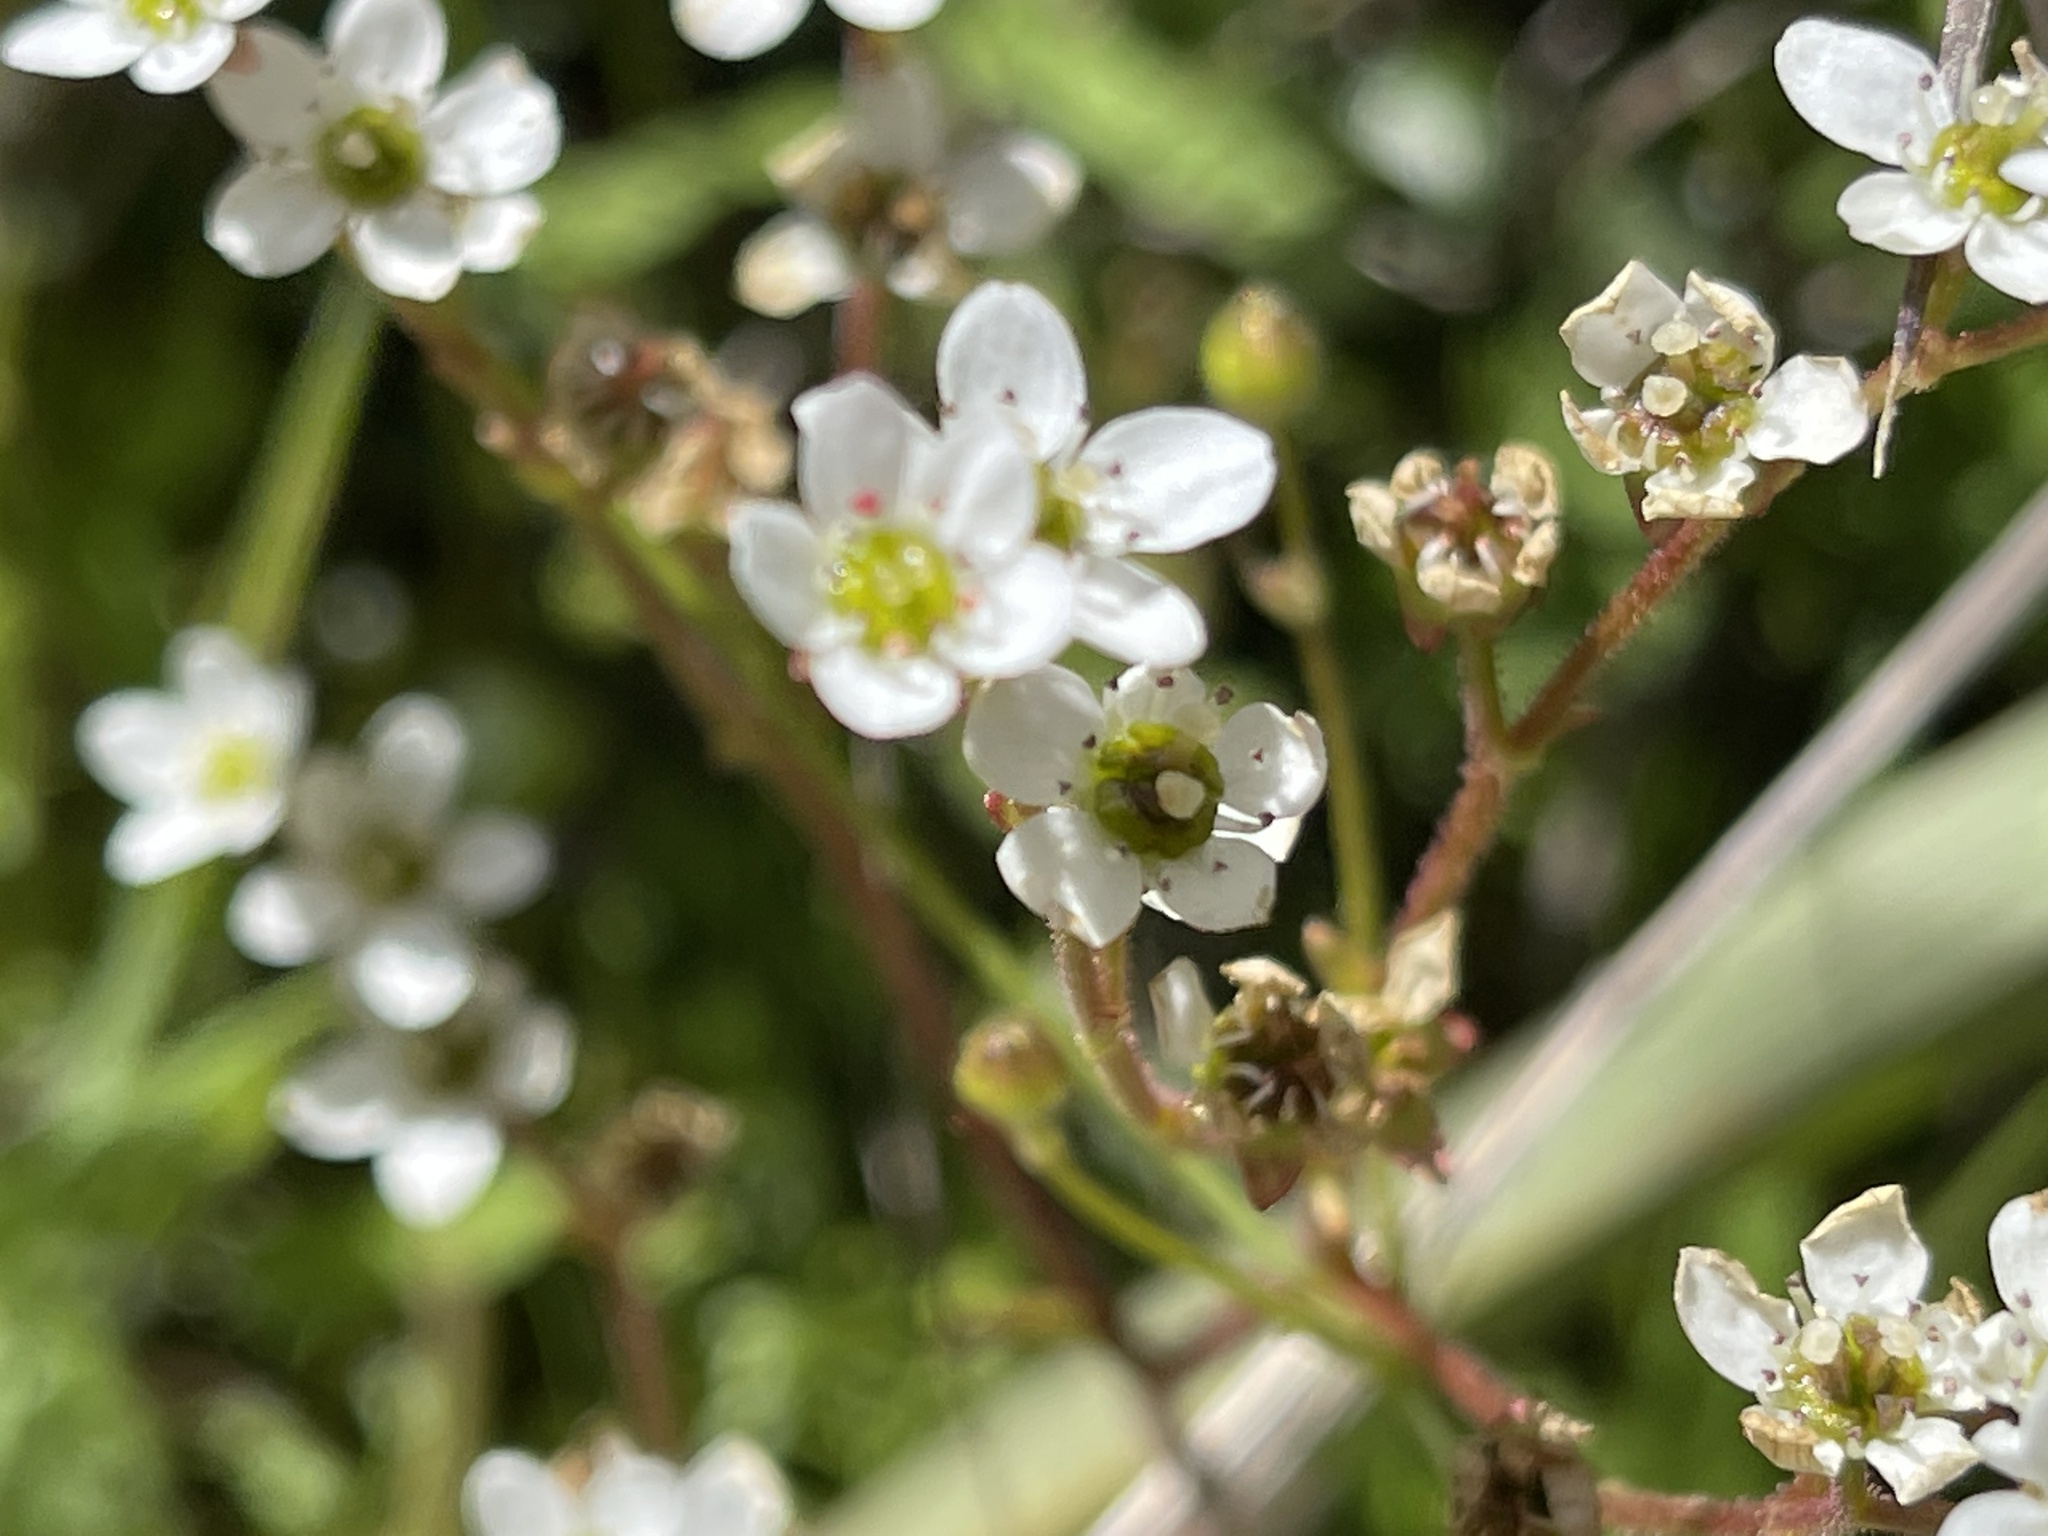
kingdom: Plantae
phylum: Tracheophyta
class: Magnoliopsida
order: Saxifragales
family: Saxifragaceae
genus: Micranthes
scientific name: Micranthes californica
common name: California saxifrage
